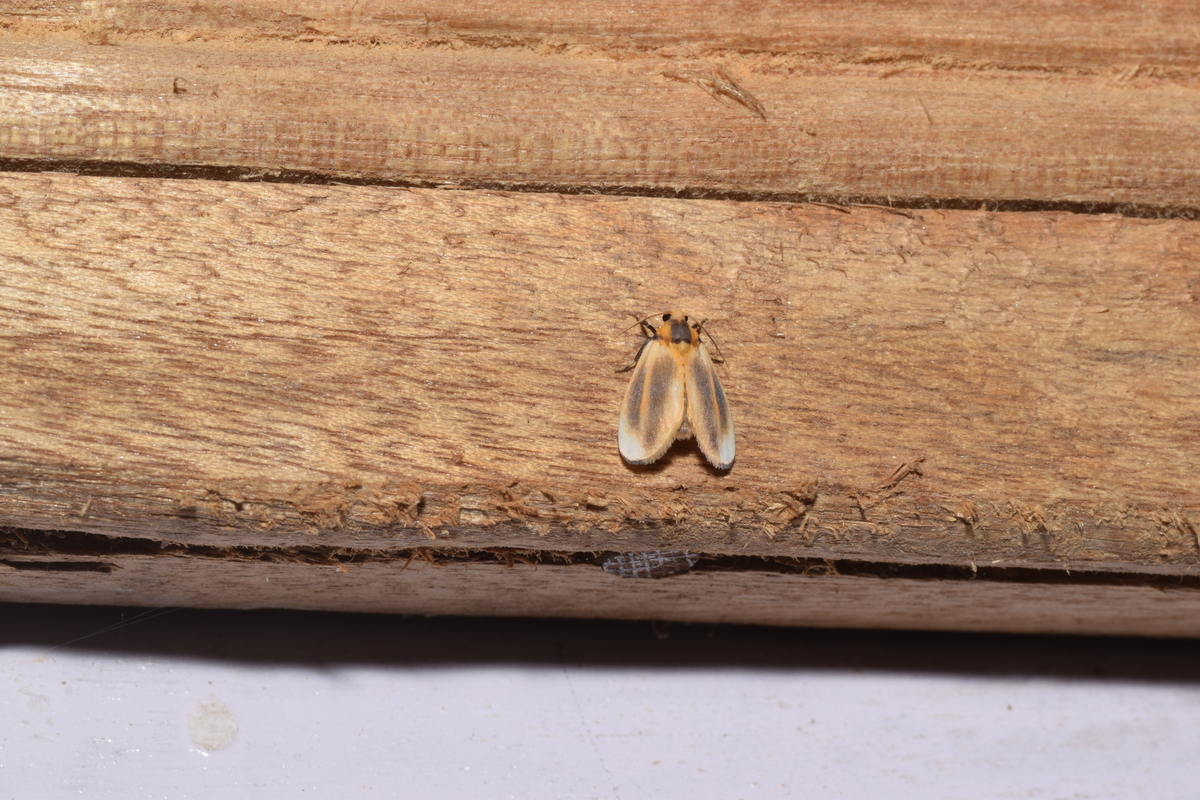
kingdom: Animalia
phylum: Arthropoda
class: Insecta
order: Lepidoptera
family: Erebidae
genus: Ovipennis
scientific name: Ovipennis dudgeoni
